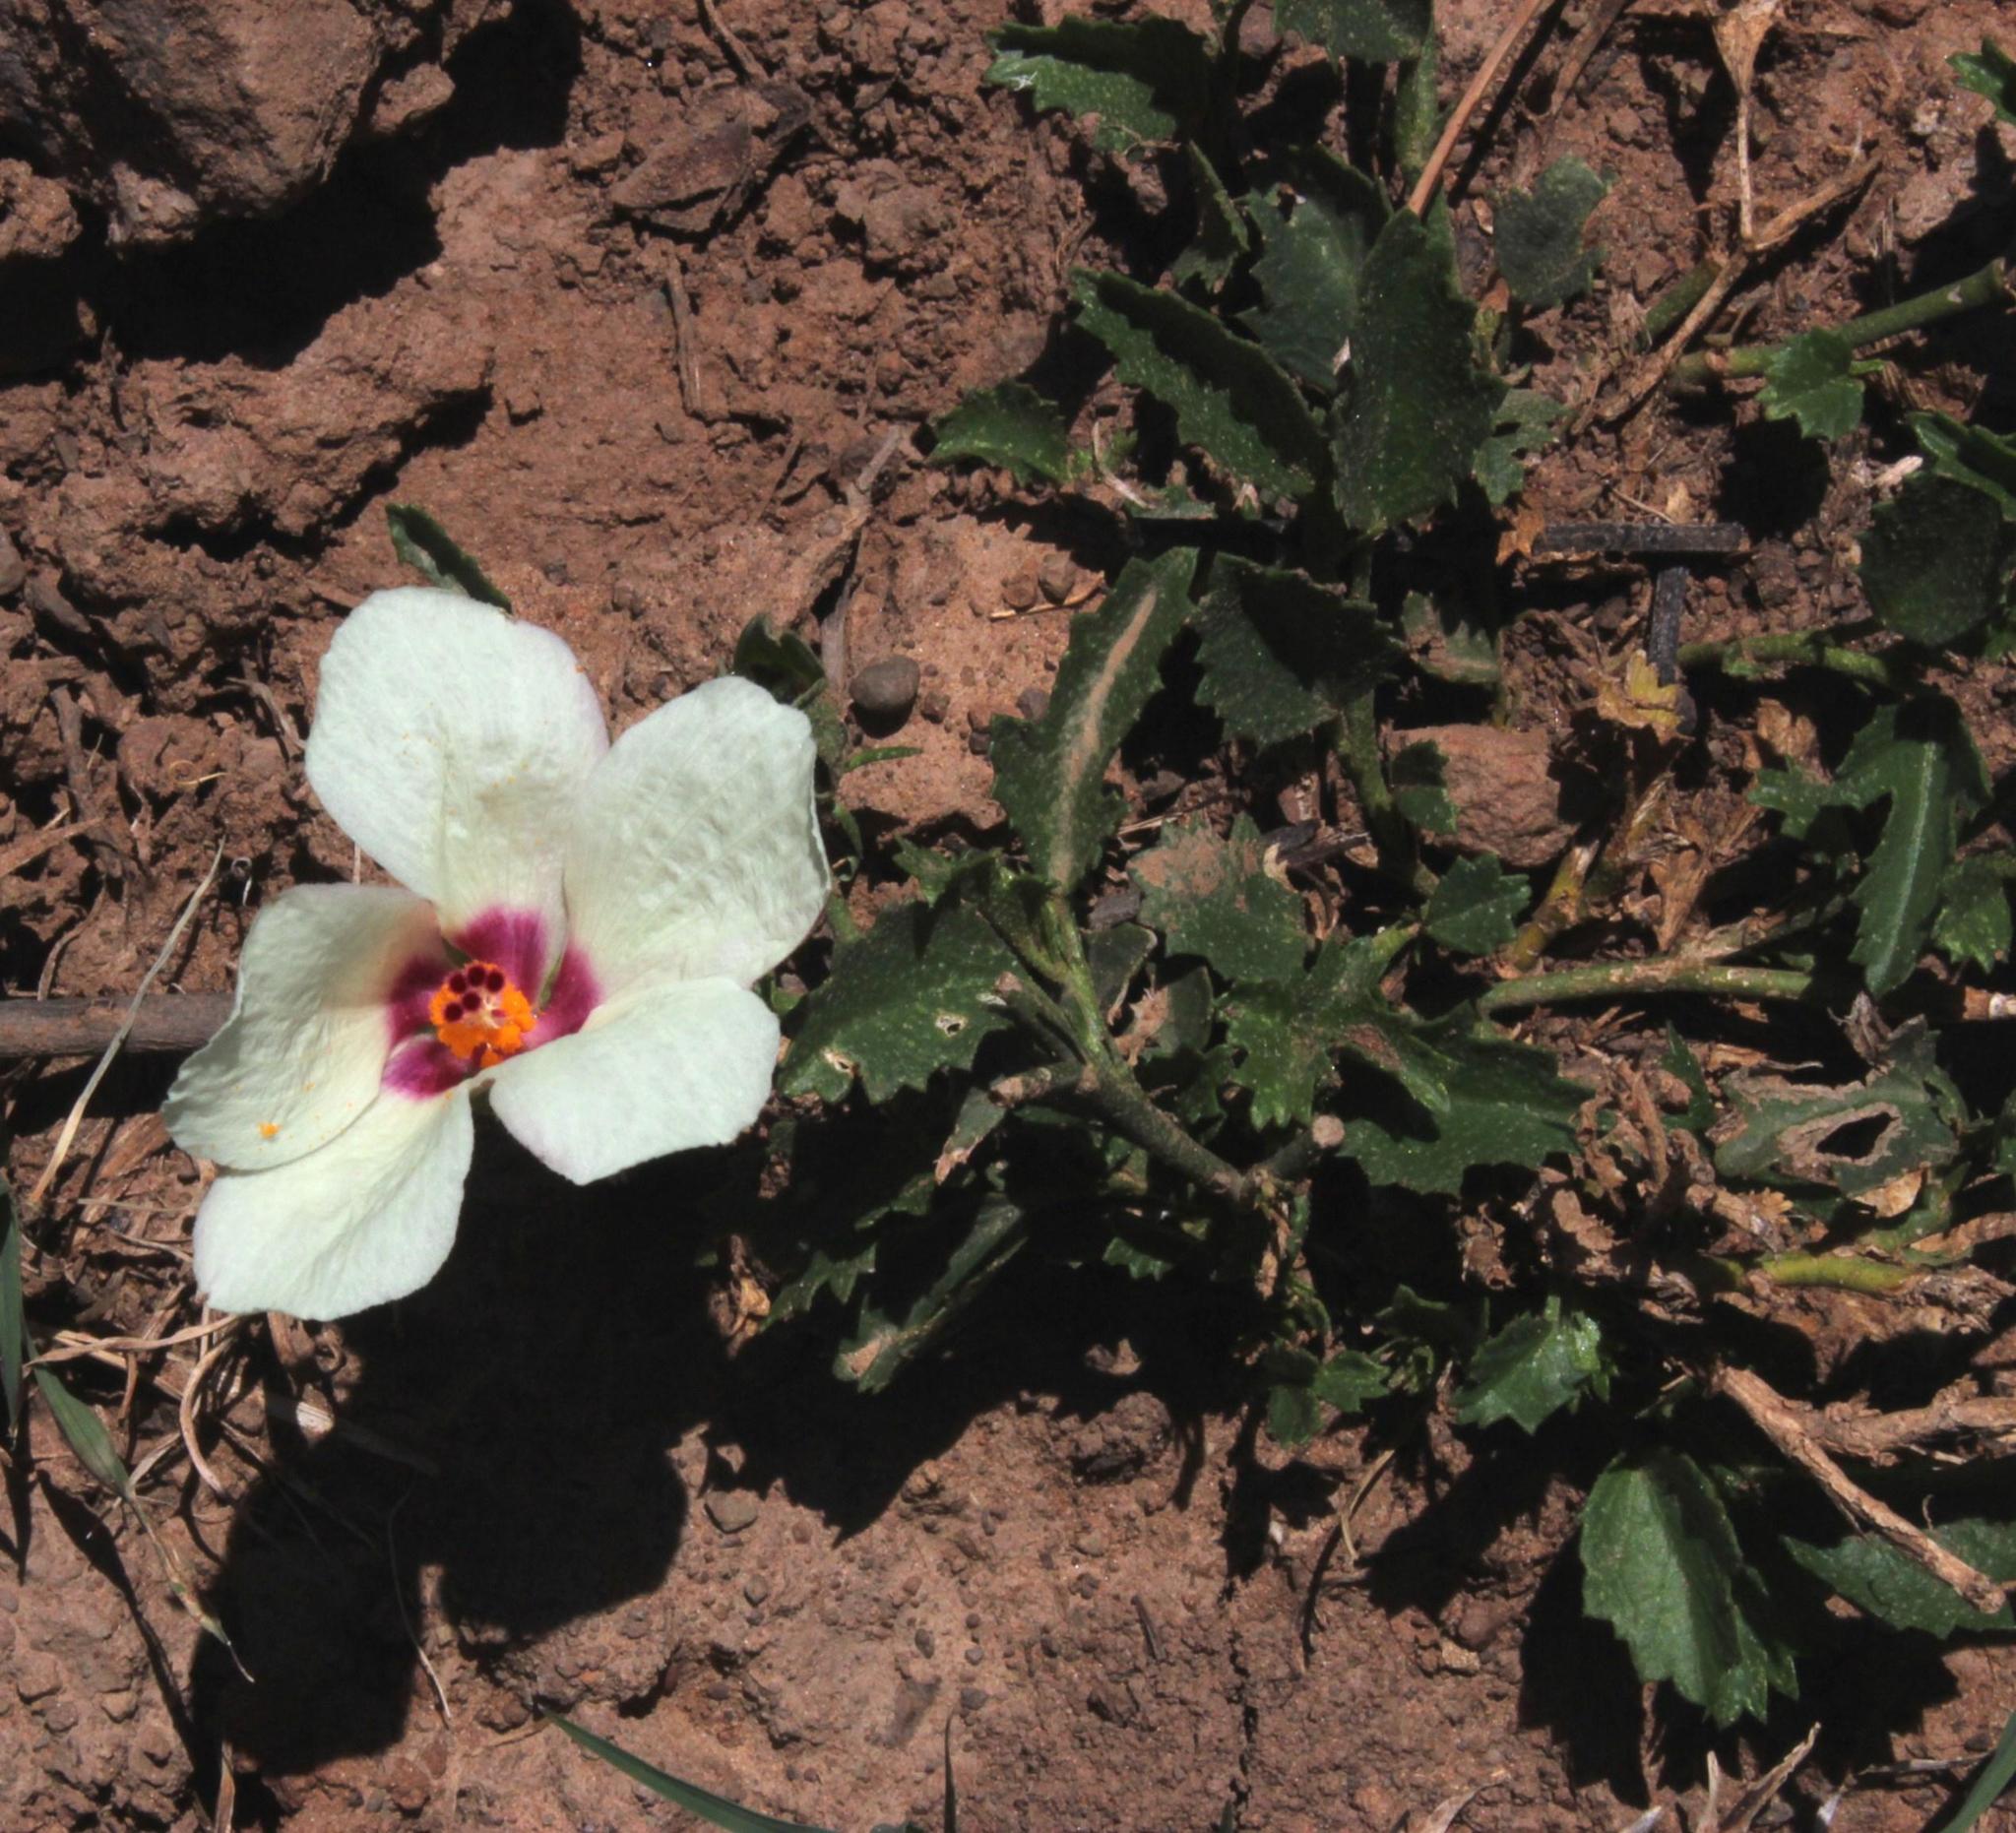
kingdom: Plantae
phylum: Tracheophyta
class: Magnoliopsida
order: Malvales
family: Malvaceae
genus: Hibiscus
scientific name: Hibiscus pusillus
